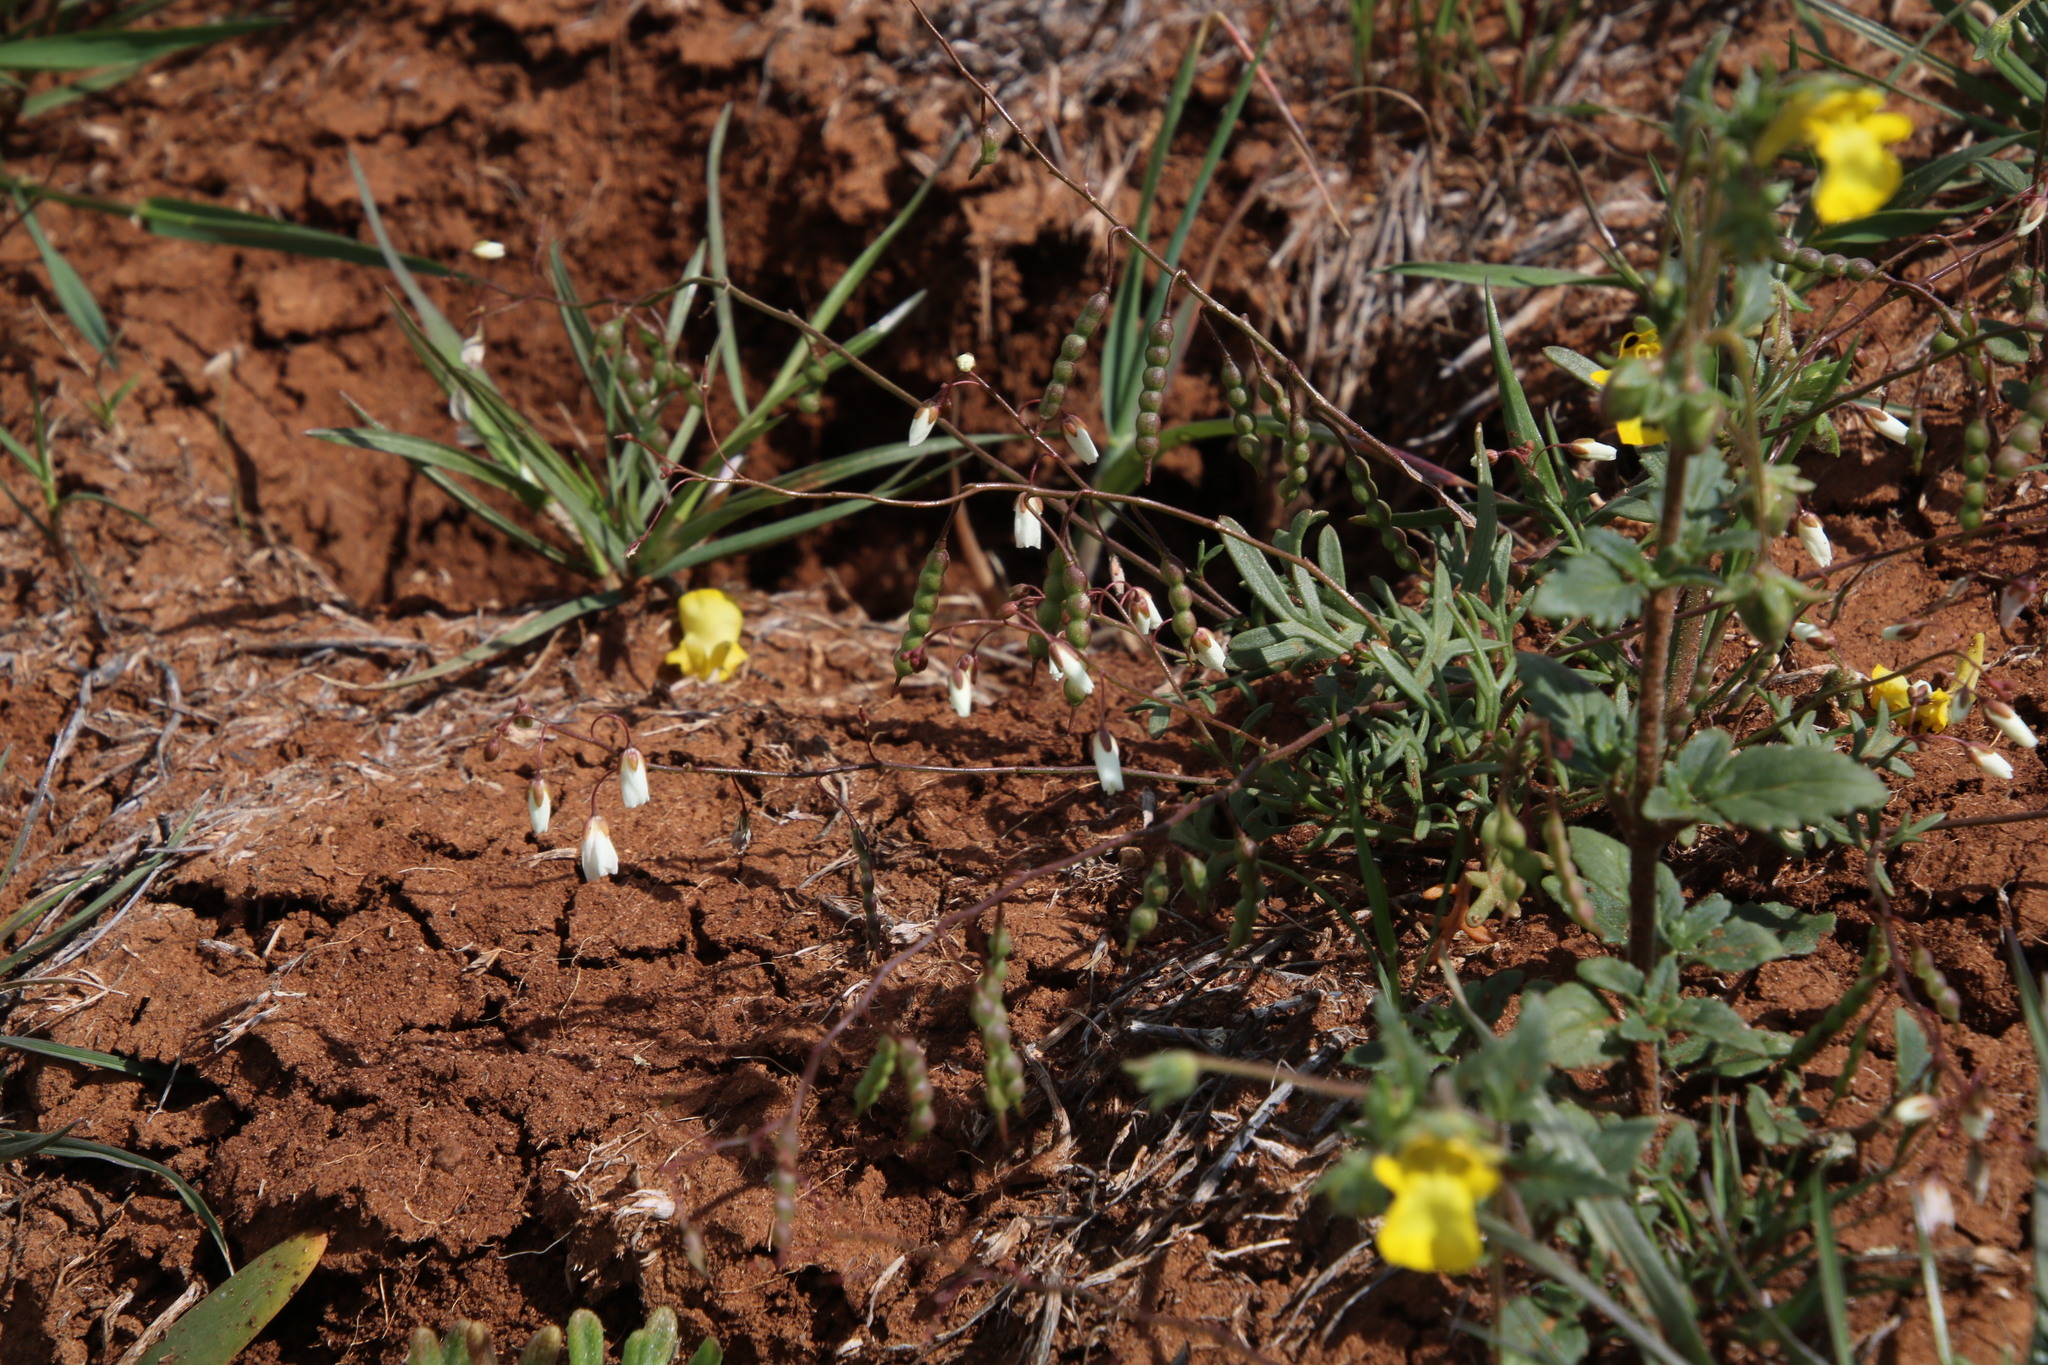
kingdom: Plantae
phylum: Tracheophyta
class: Magnoliopsida
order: Brassicales
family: Brassicaceae
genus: Heliophila
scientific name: Heliophila collina
